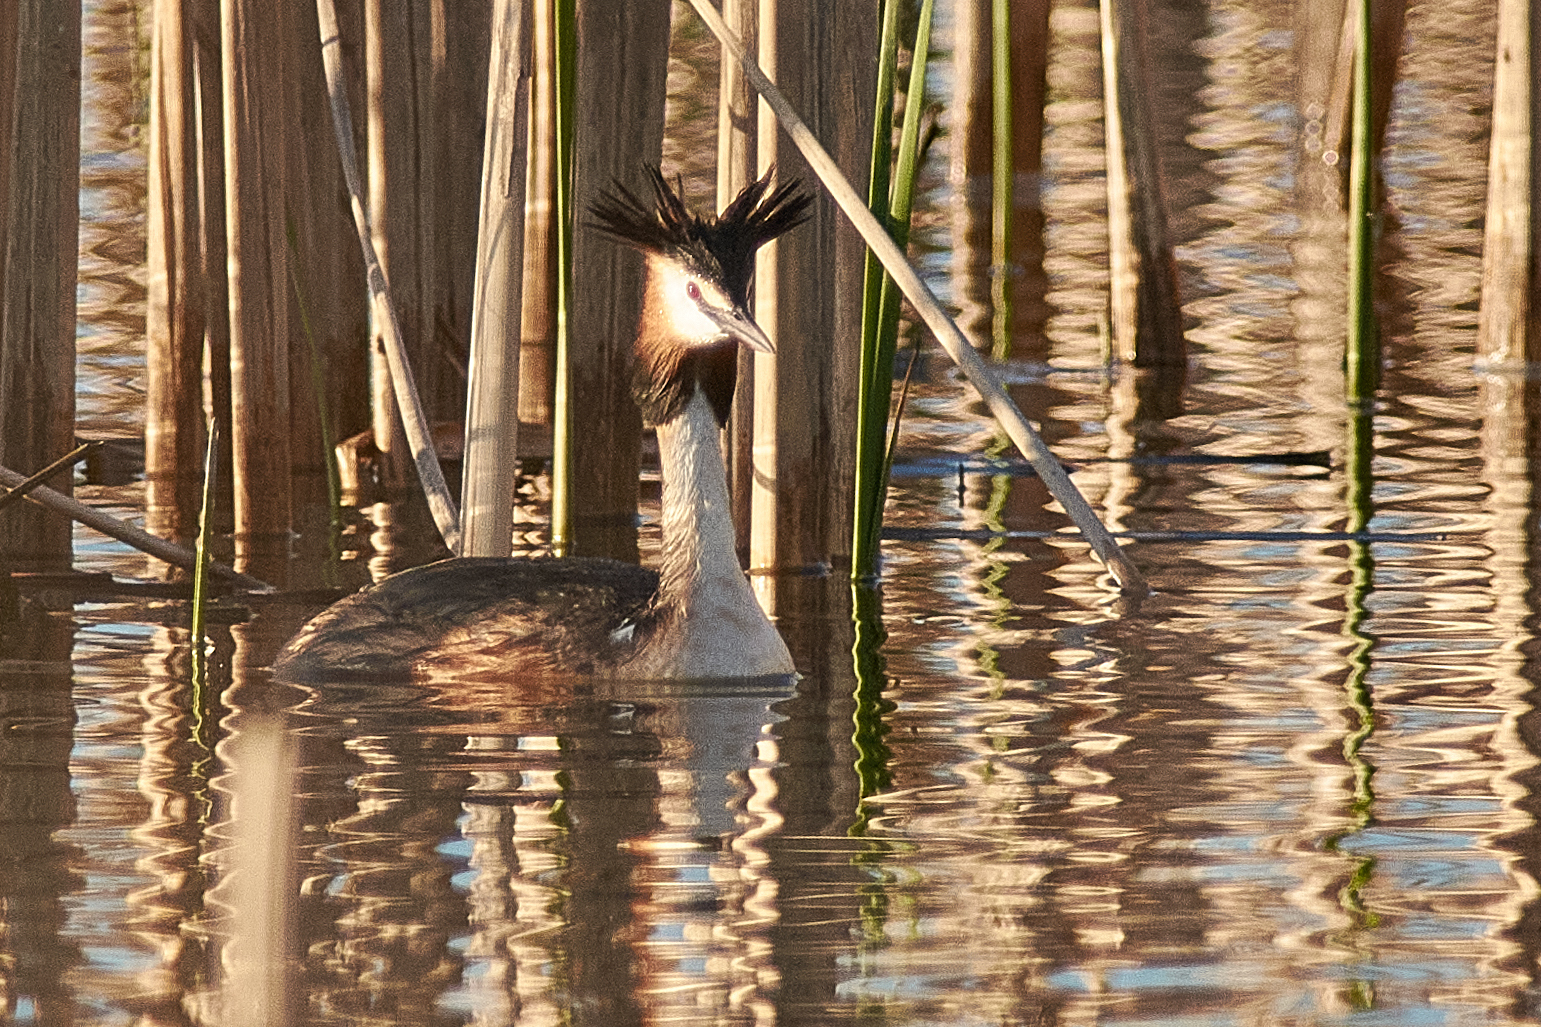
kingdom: Animalia
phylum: Chordata
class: Aves
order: Podicipediformes
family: Podicipedidae
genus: Podiceps
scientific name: Podiceps cristatus
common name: Great crested grebe
